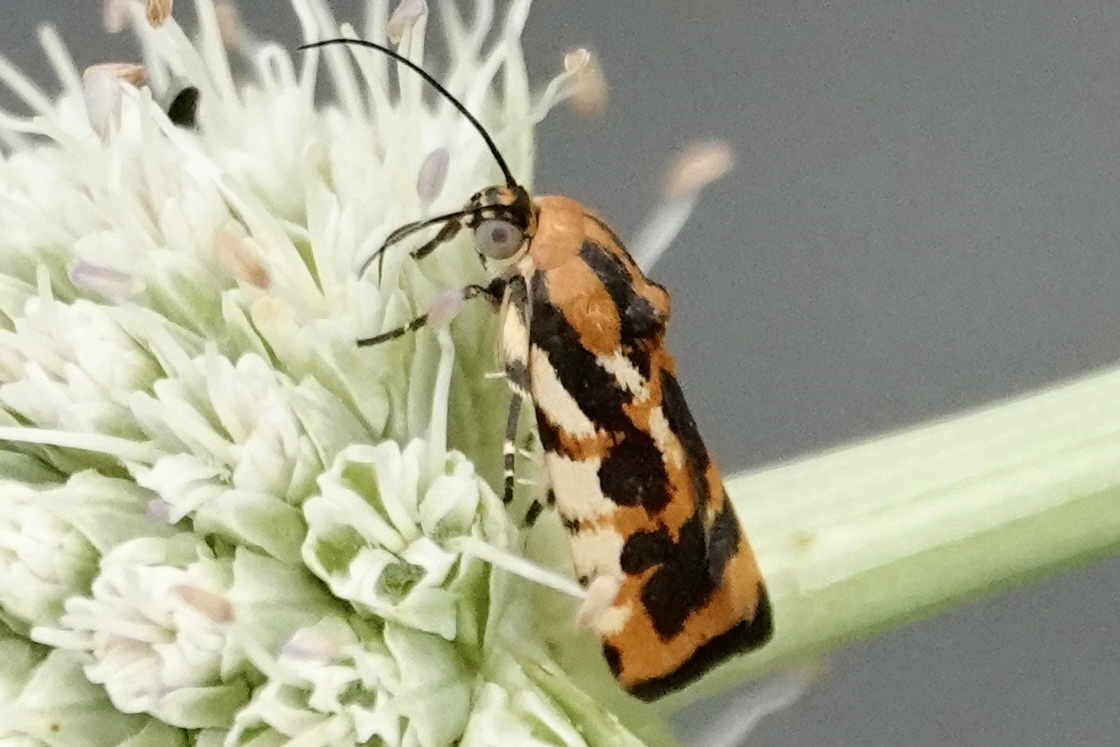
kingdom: Animalia
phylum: Arthropoda
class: Insecta
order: Lepidoptera
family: Noctuidae
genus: Acontia
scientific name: Acontia leo
